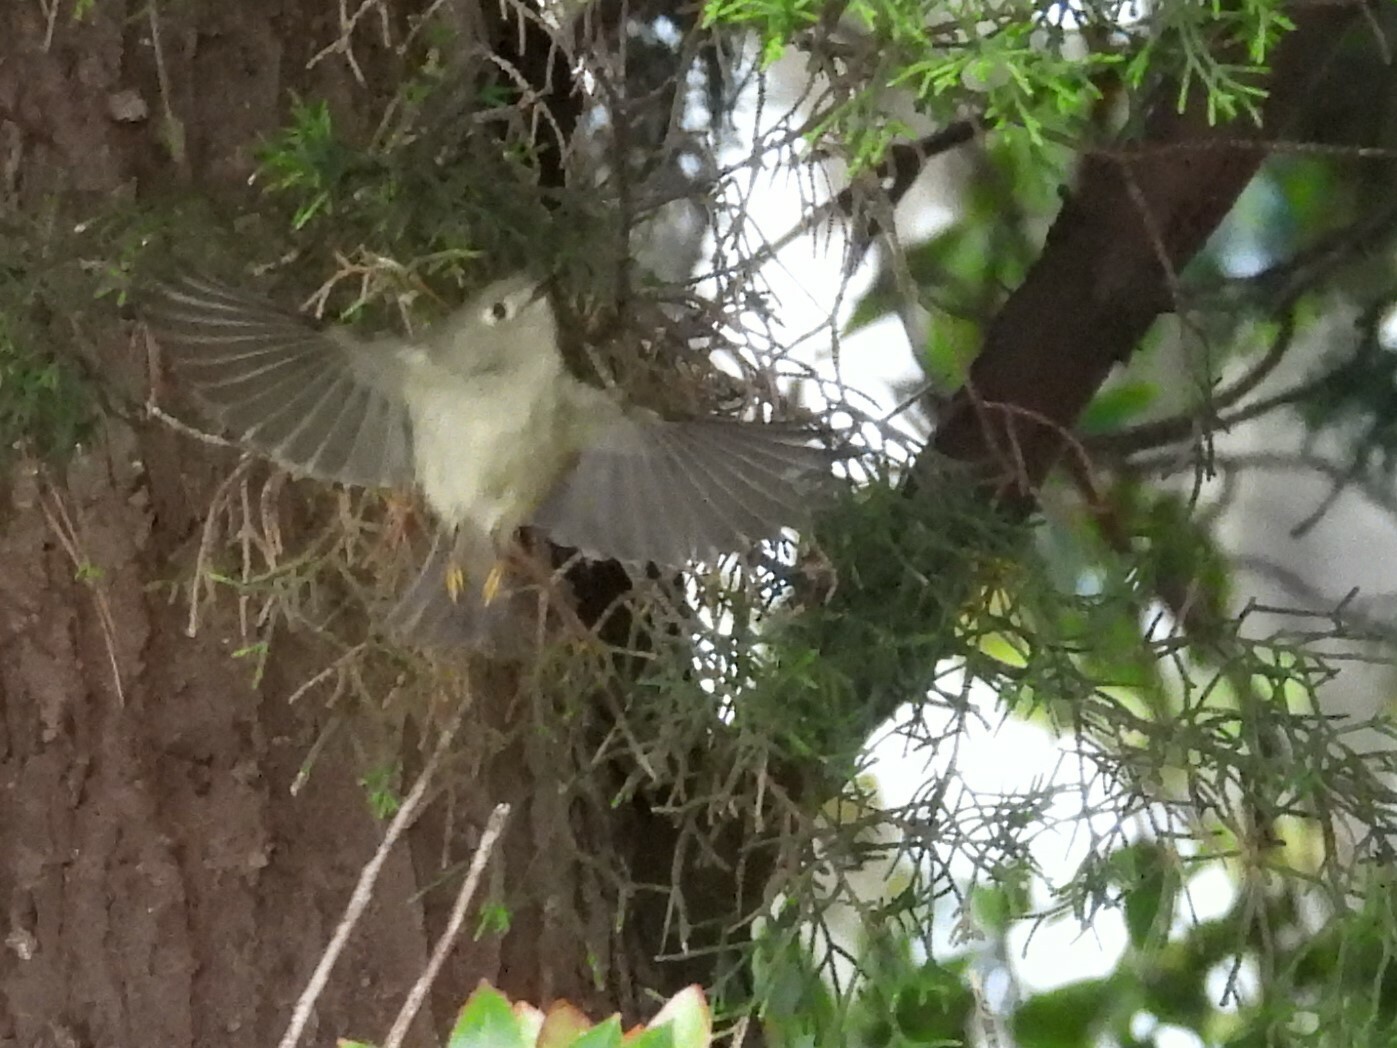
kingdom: Animalia
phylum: Chordata
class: Aves
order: Passeriformes
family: Regulidae
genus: Regulus
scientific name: Regulus calendula
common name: Ruby-crowned kinglet
